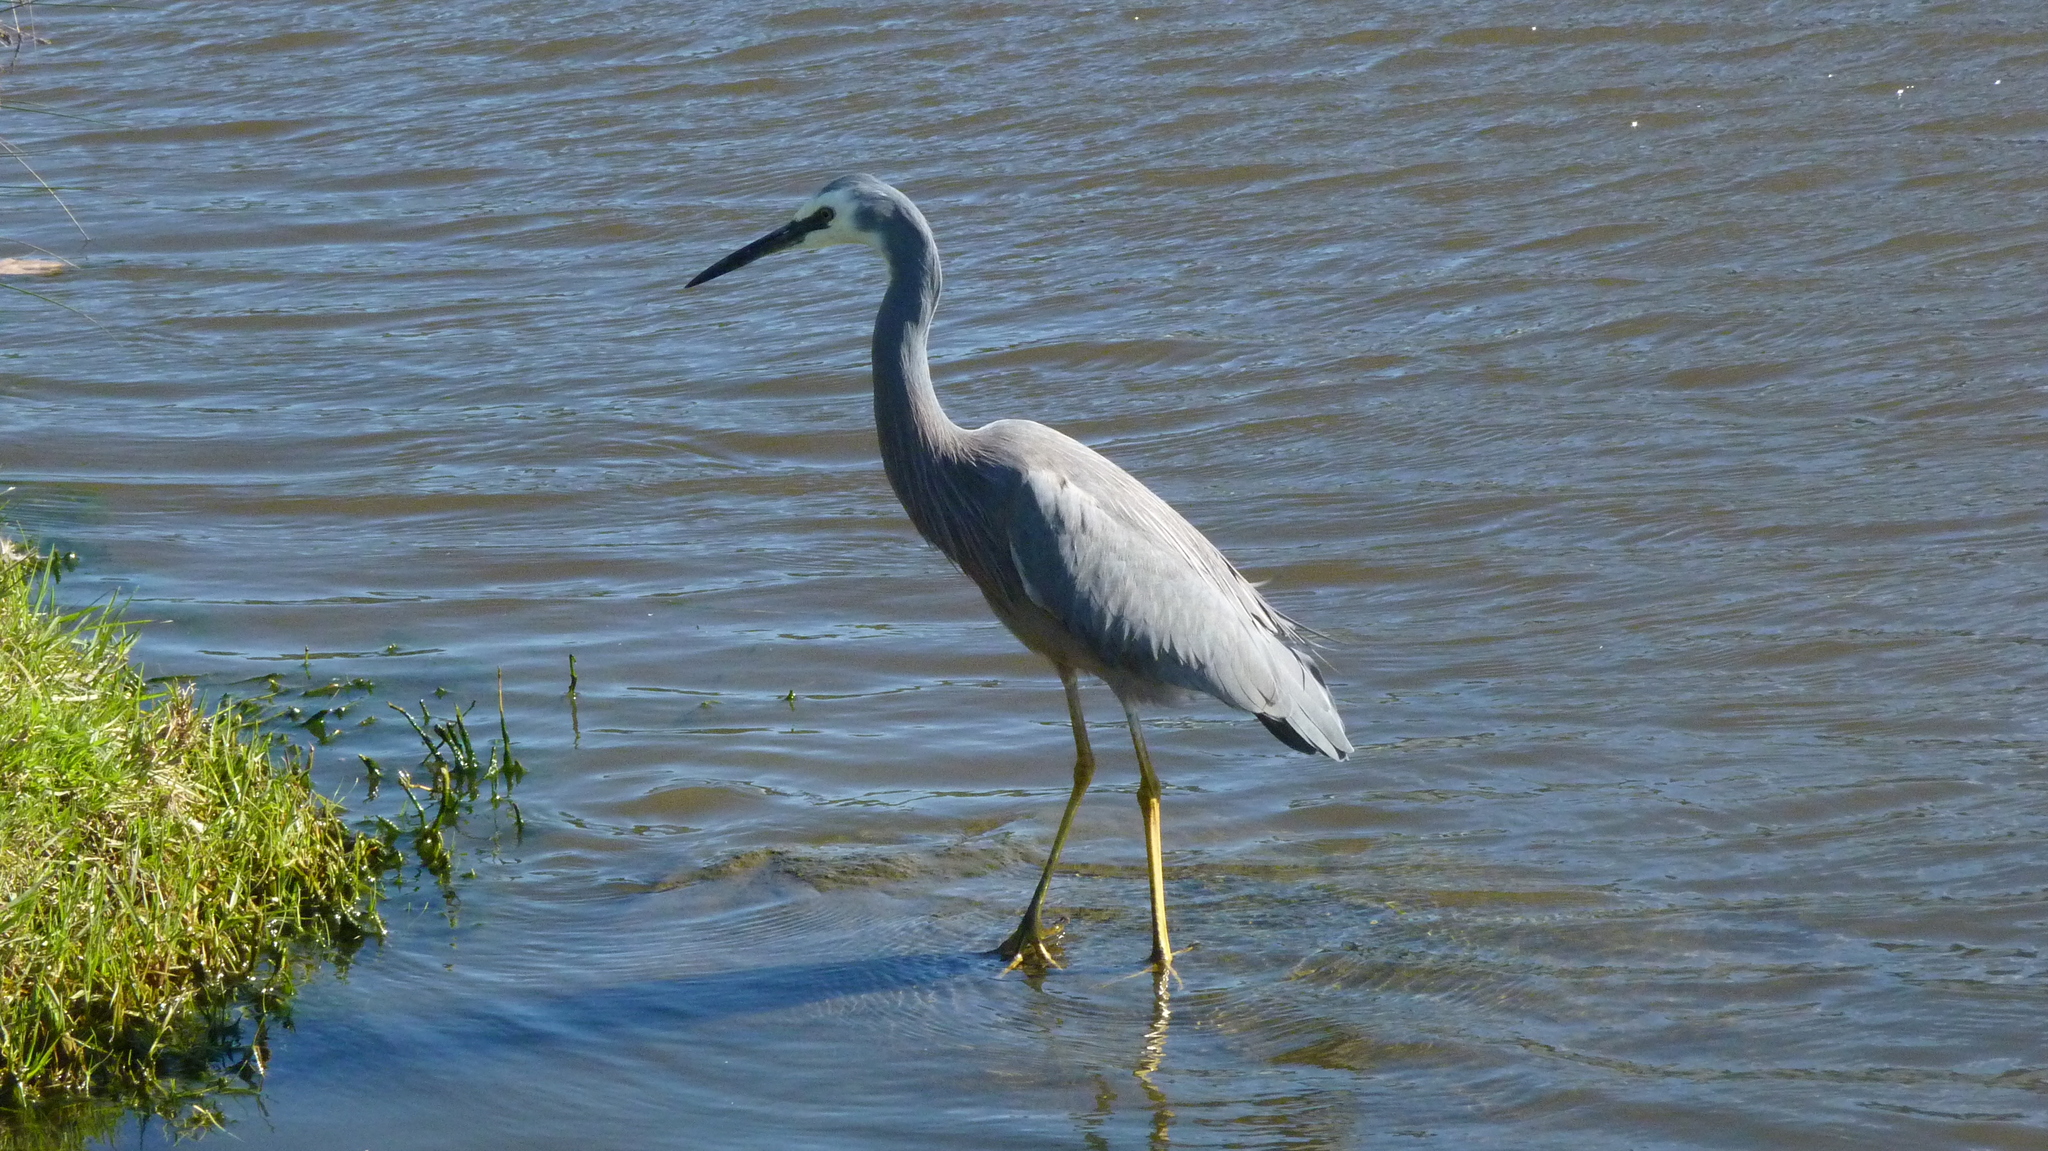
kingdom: Animalia
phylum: Chordata
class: Aves
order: Pelecaniformes
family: Ardeidae
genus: Egretta
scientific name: Egretta novaehollandiae
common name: White-faced heron
